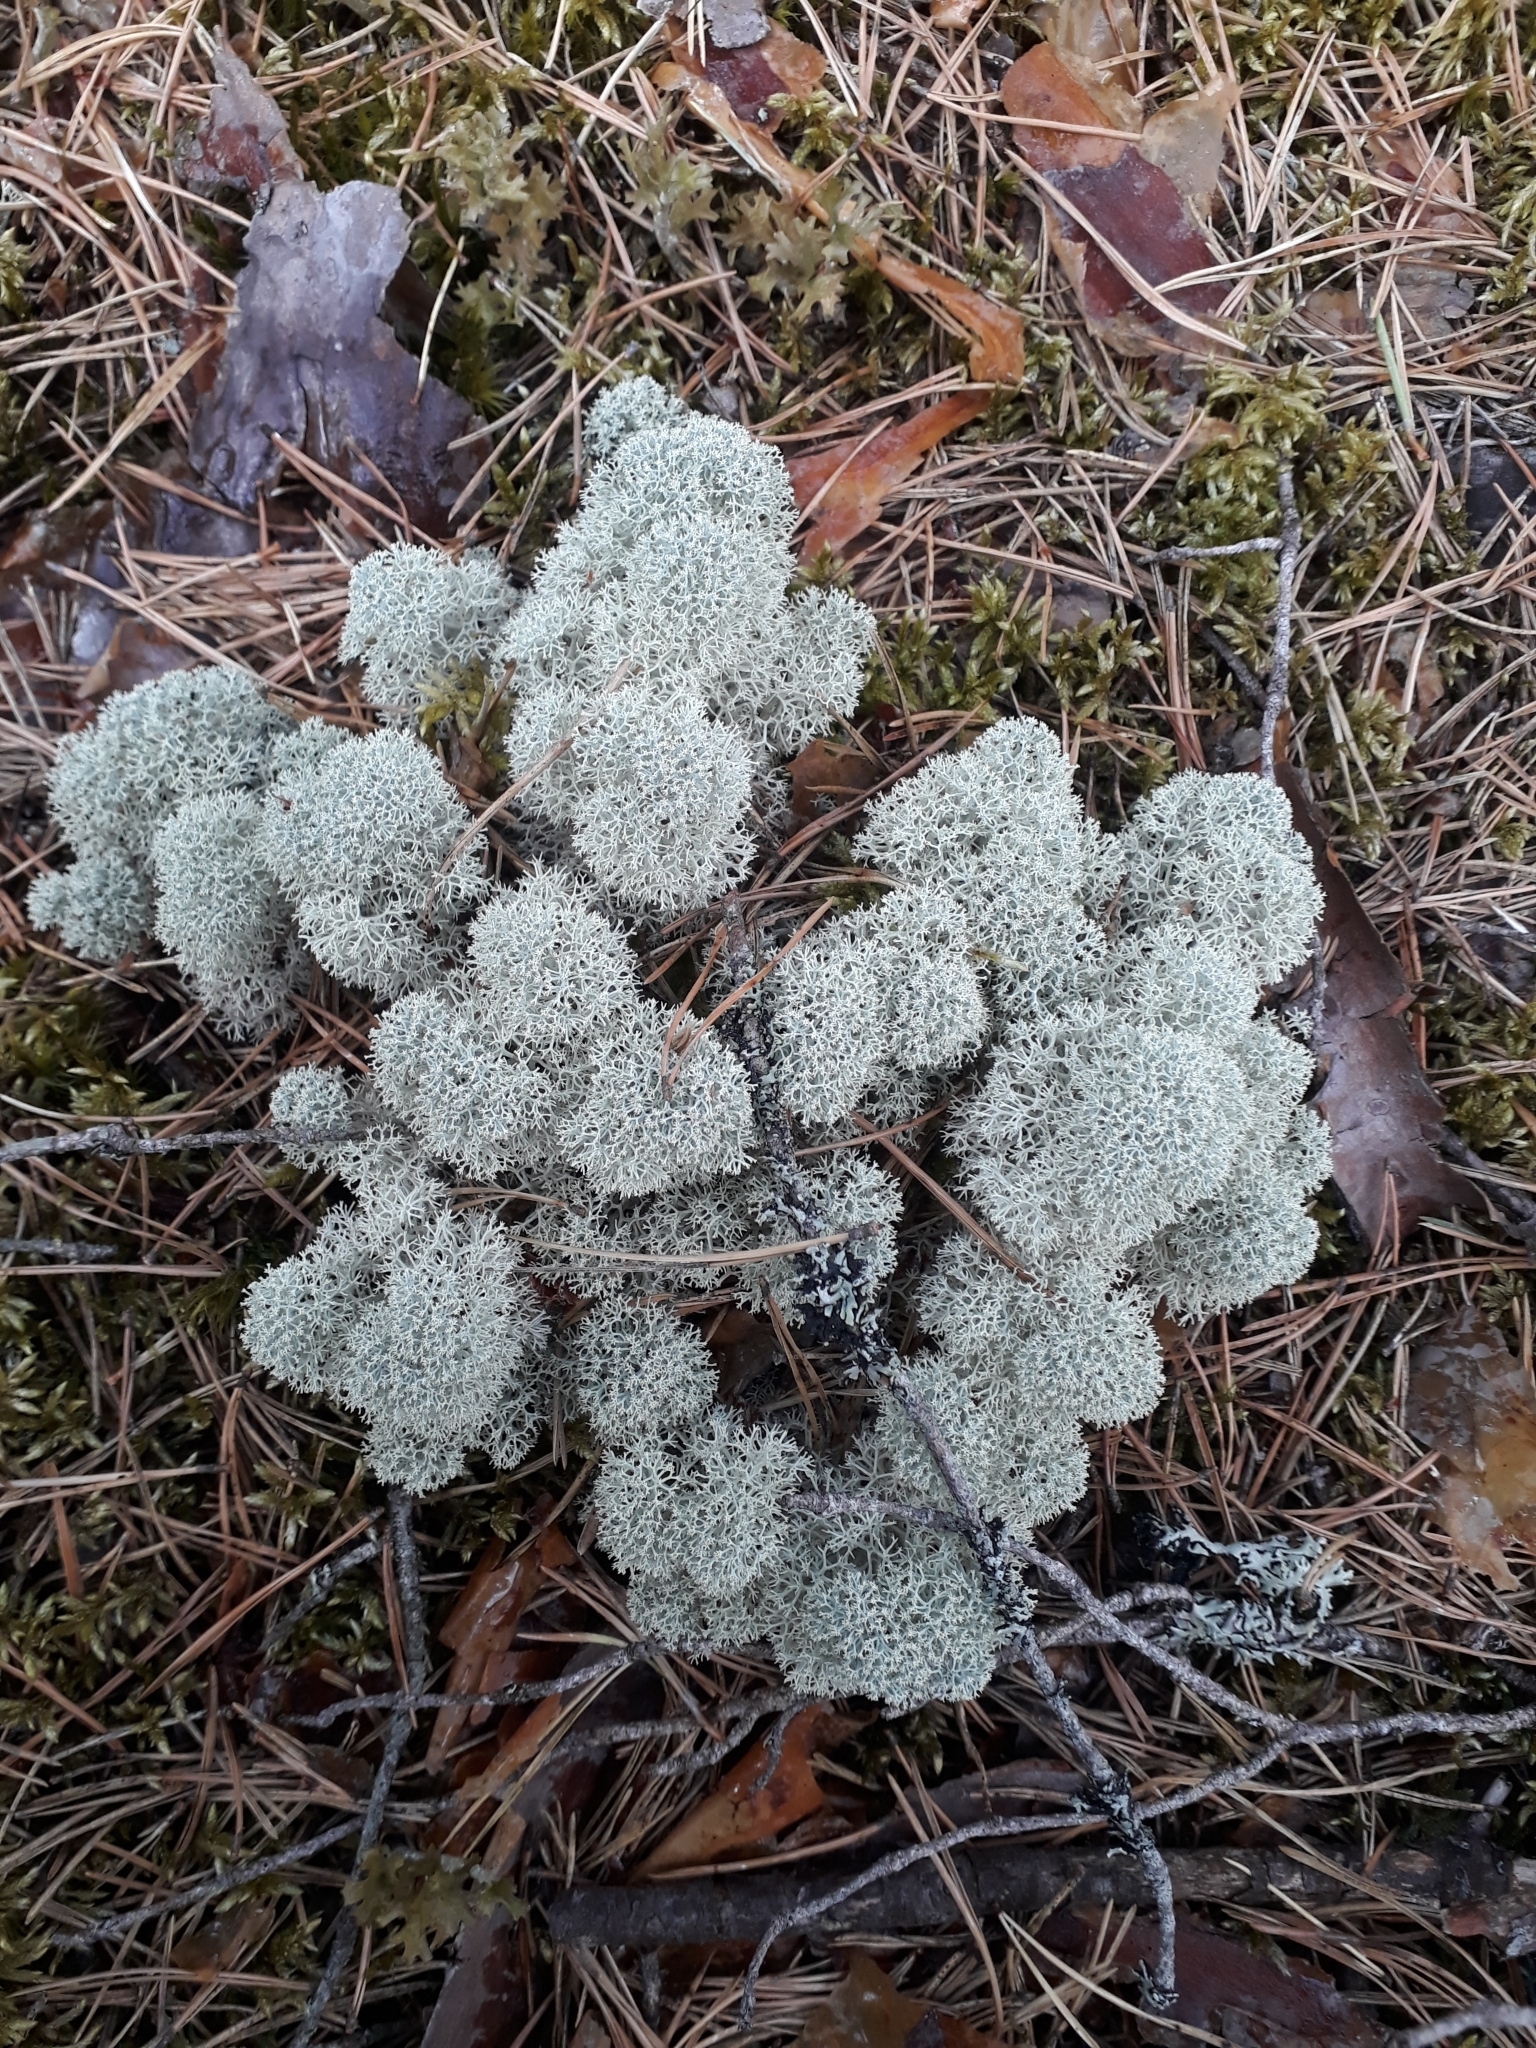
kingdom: Fungi
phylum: Ascomycota
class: Lecanoromycetes
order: Lecanorales
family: Cladoniaceae
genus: Cladonia
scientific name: Cladonia stellaris
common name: Star-tipped reindeer lichen
